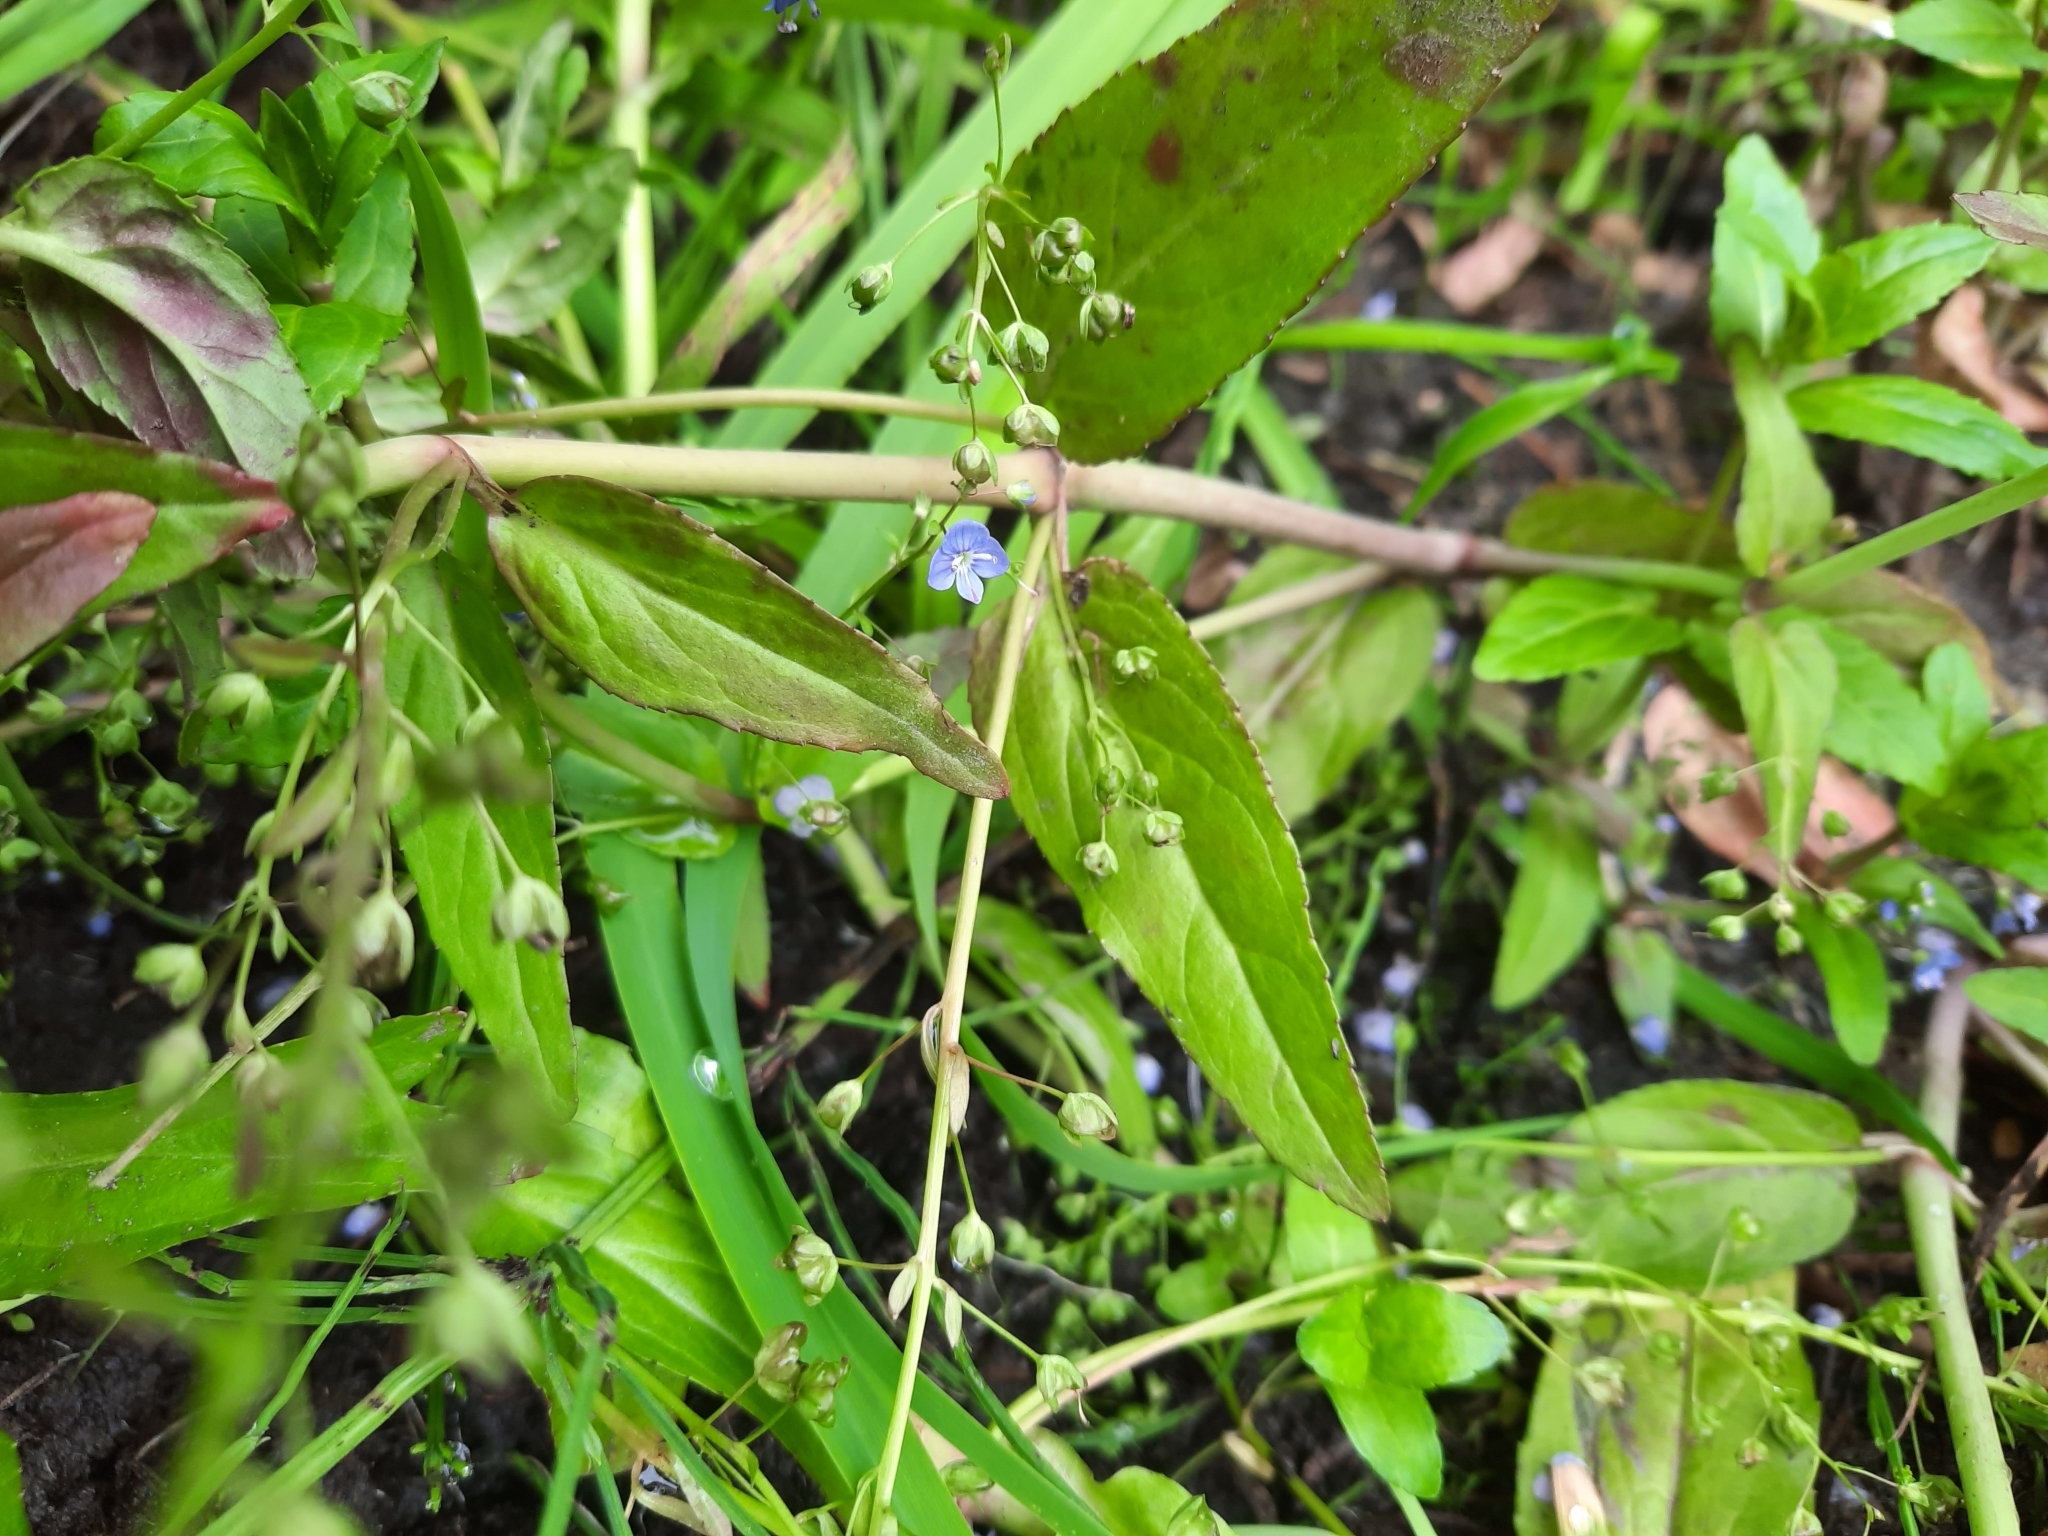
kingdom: Plantae
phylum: Tracheophyta
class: Magnoliopsida
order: Lamiales
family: Plantaginaceae
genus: Veronica
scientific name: Veronica americana
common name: American brooklime
